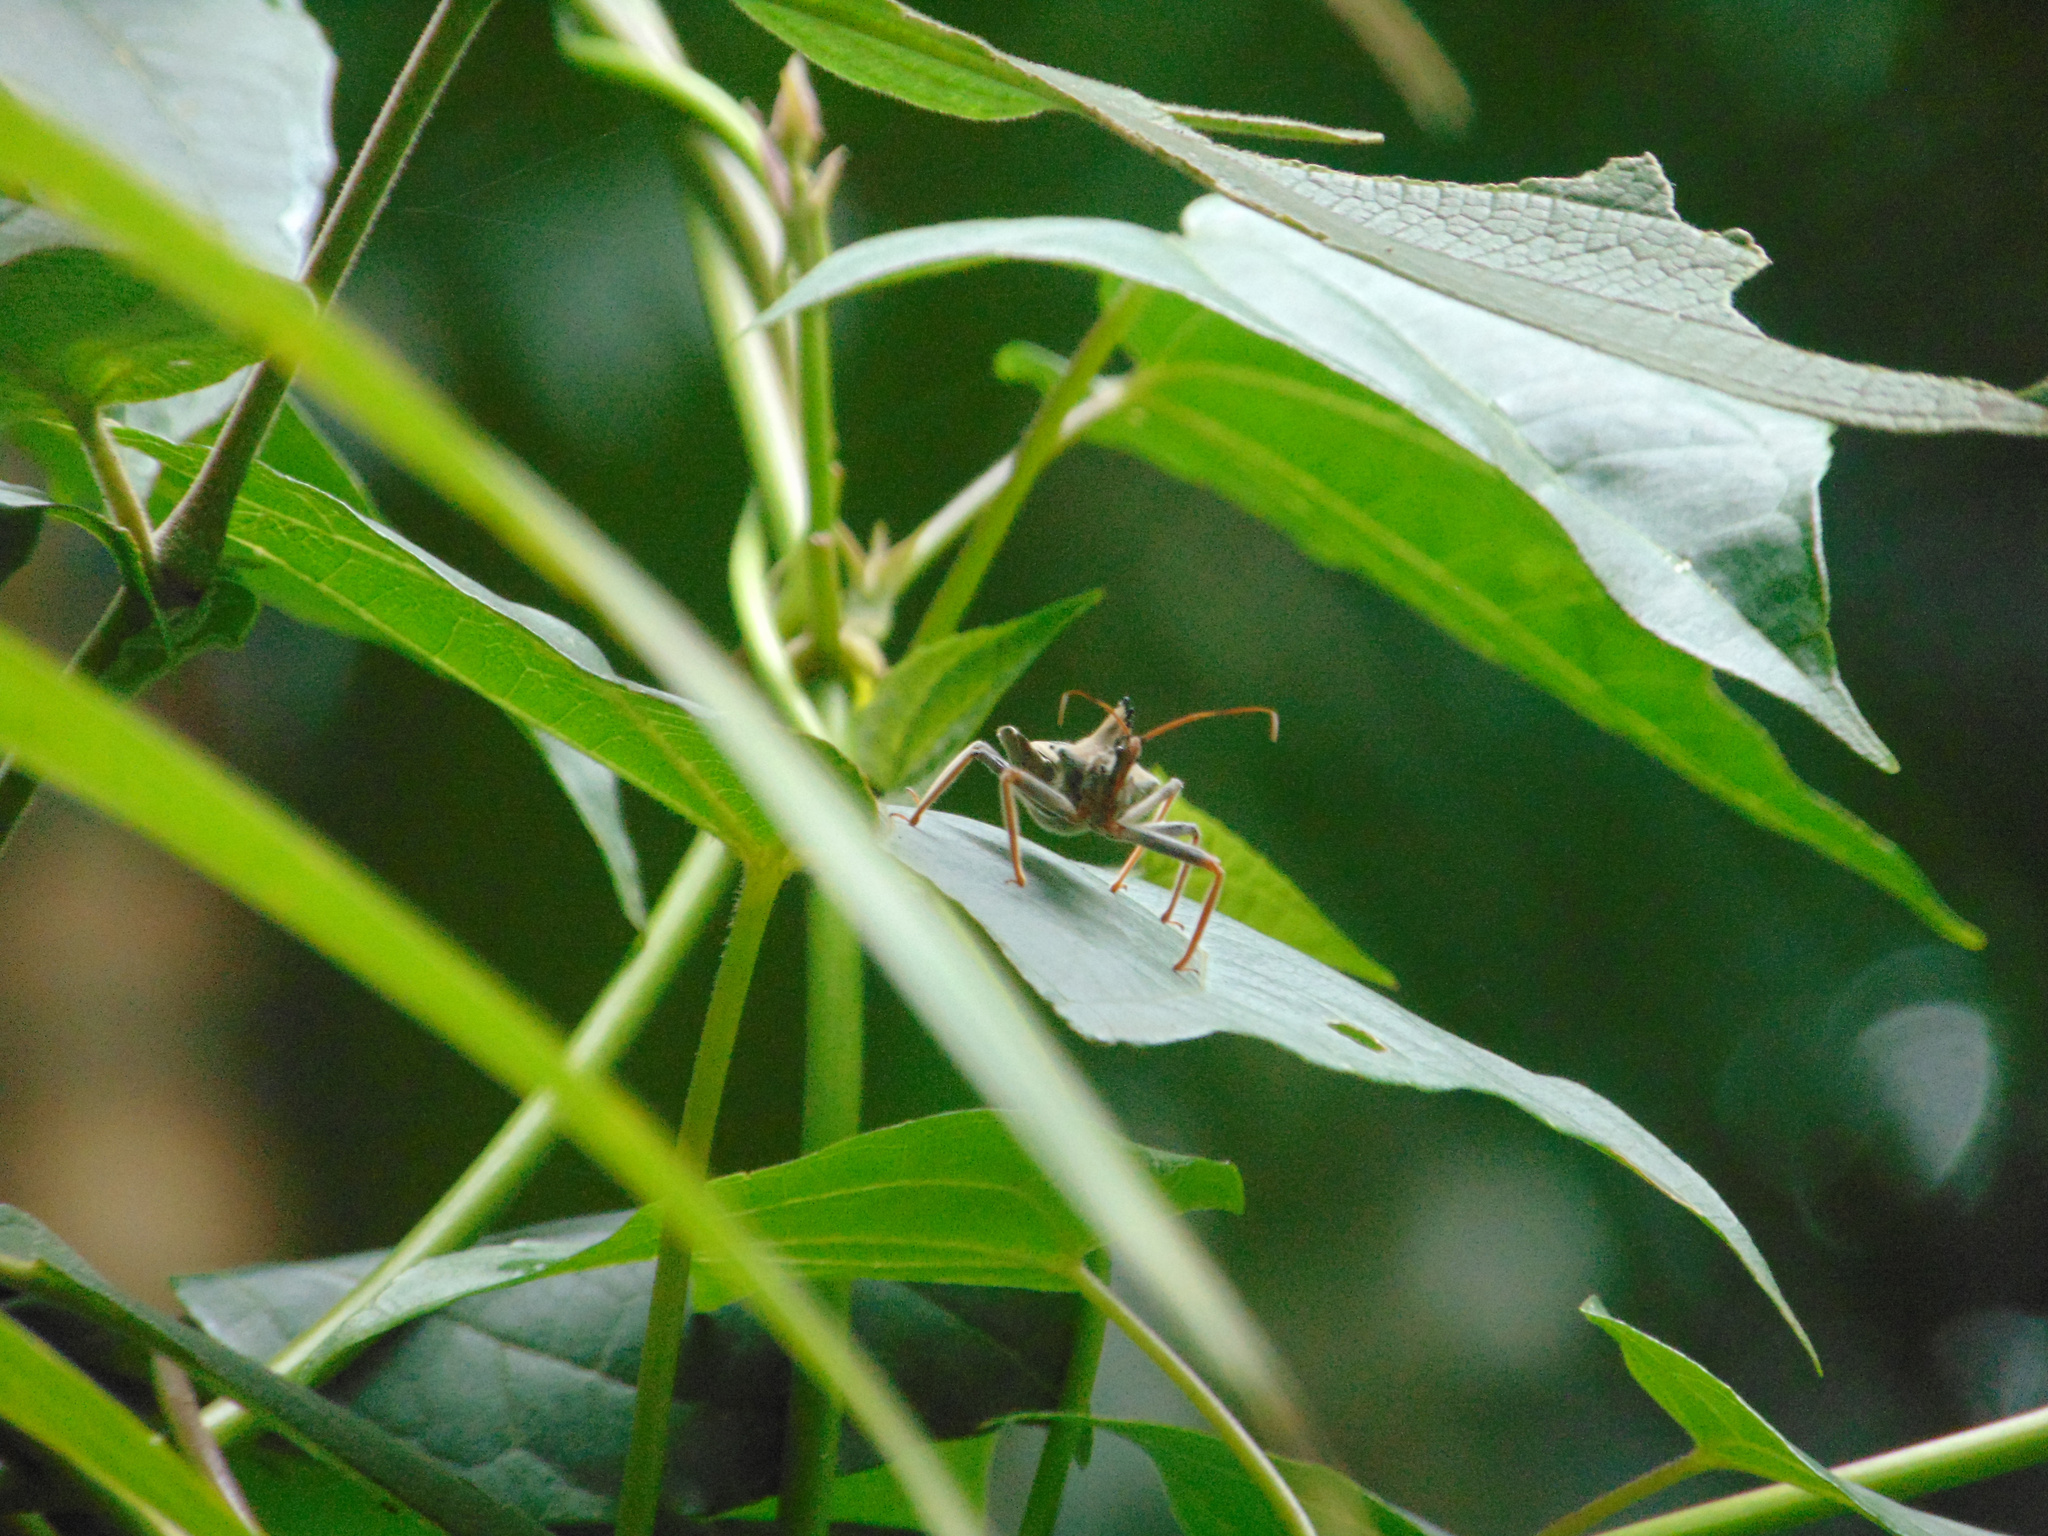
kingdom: Animalia
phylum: Arthropoda
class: Insecta
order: Hemiptera
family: Reduviidae
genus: Arilus
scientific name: Arilus carinatus
